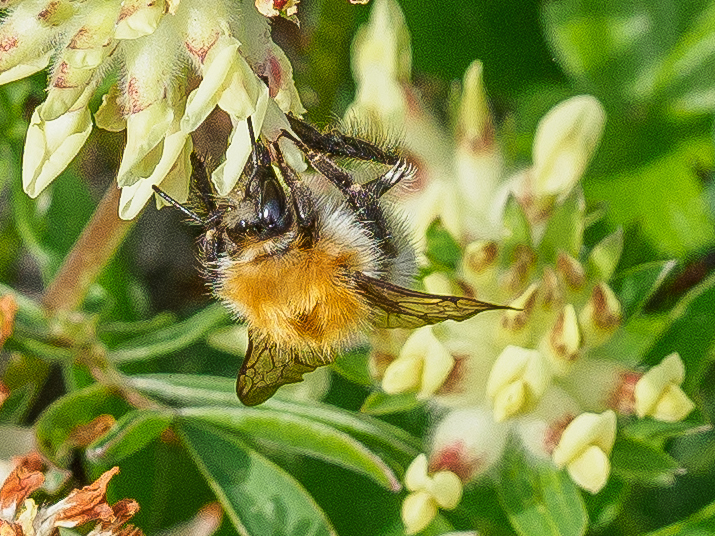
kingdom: Animalia
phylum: Arthropoda
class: Insecta
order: Hymenoptera
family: Apidae
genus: Bombus
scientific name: Bombus pascuorum
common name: Common carder bee
